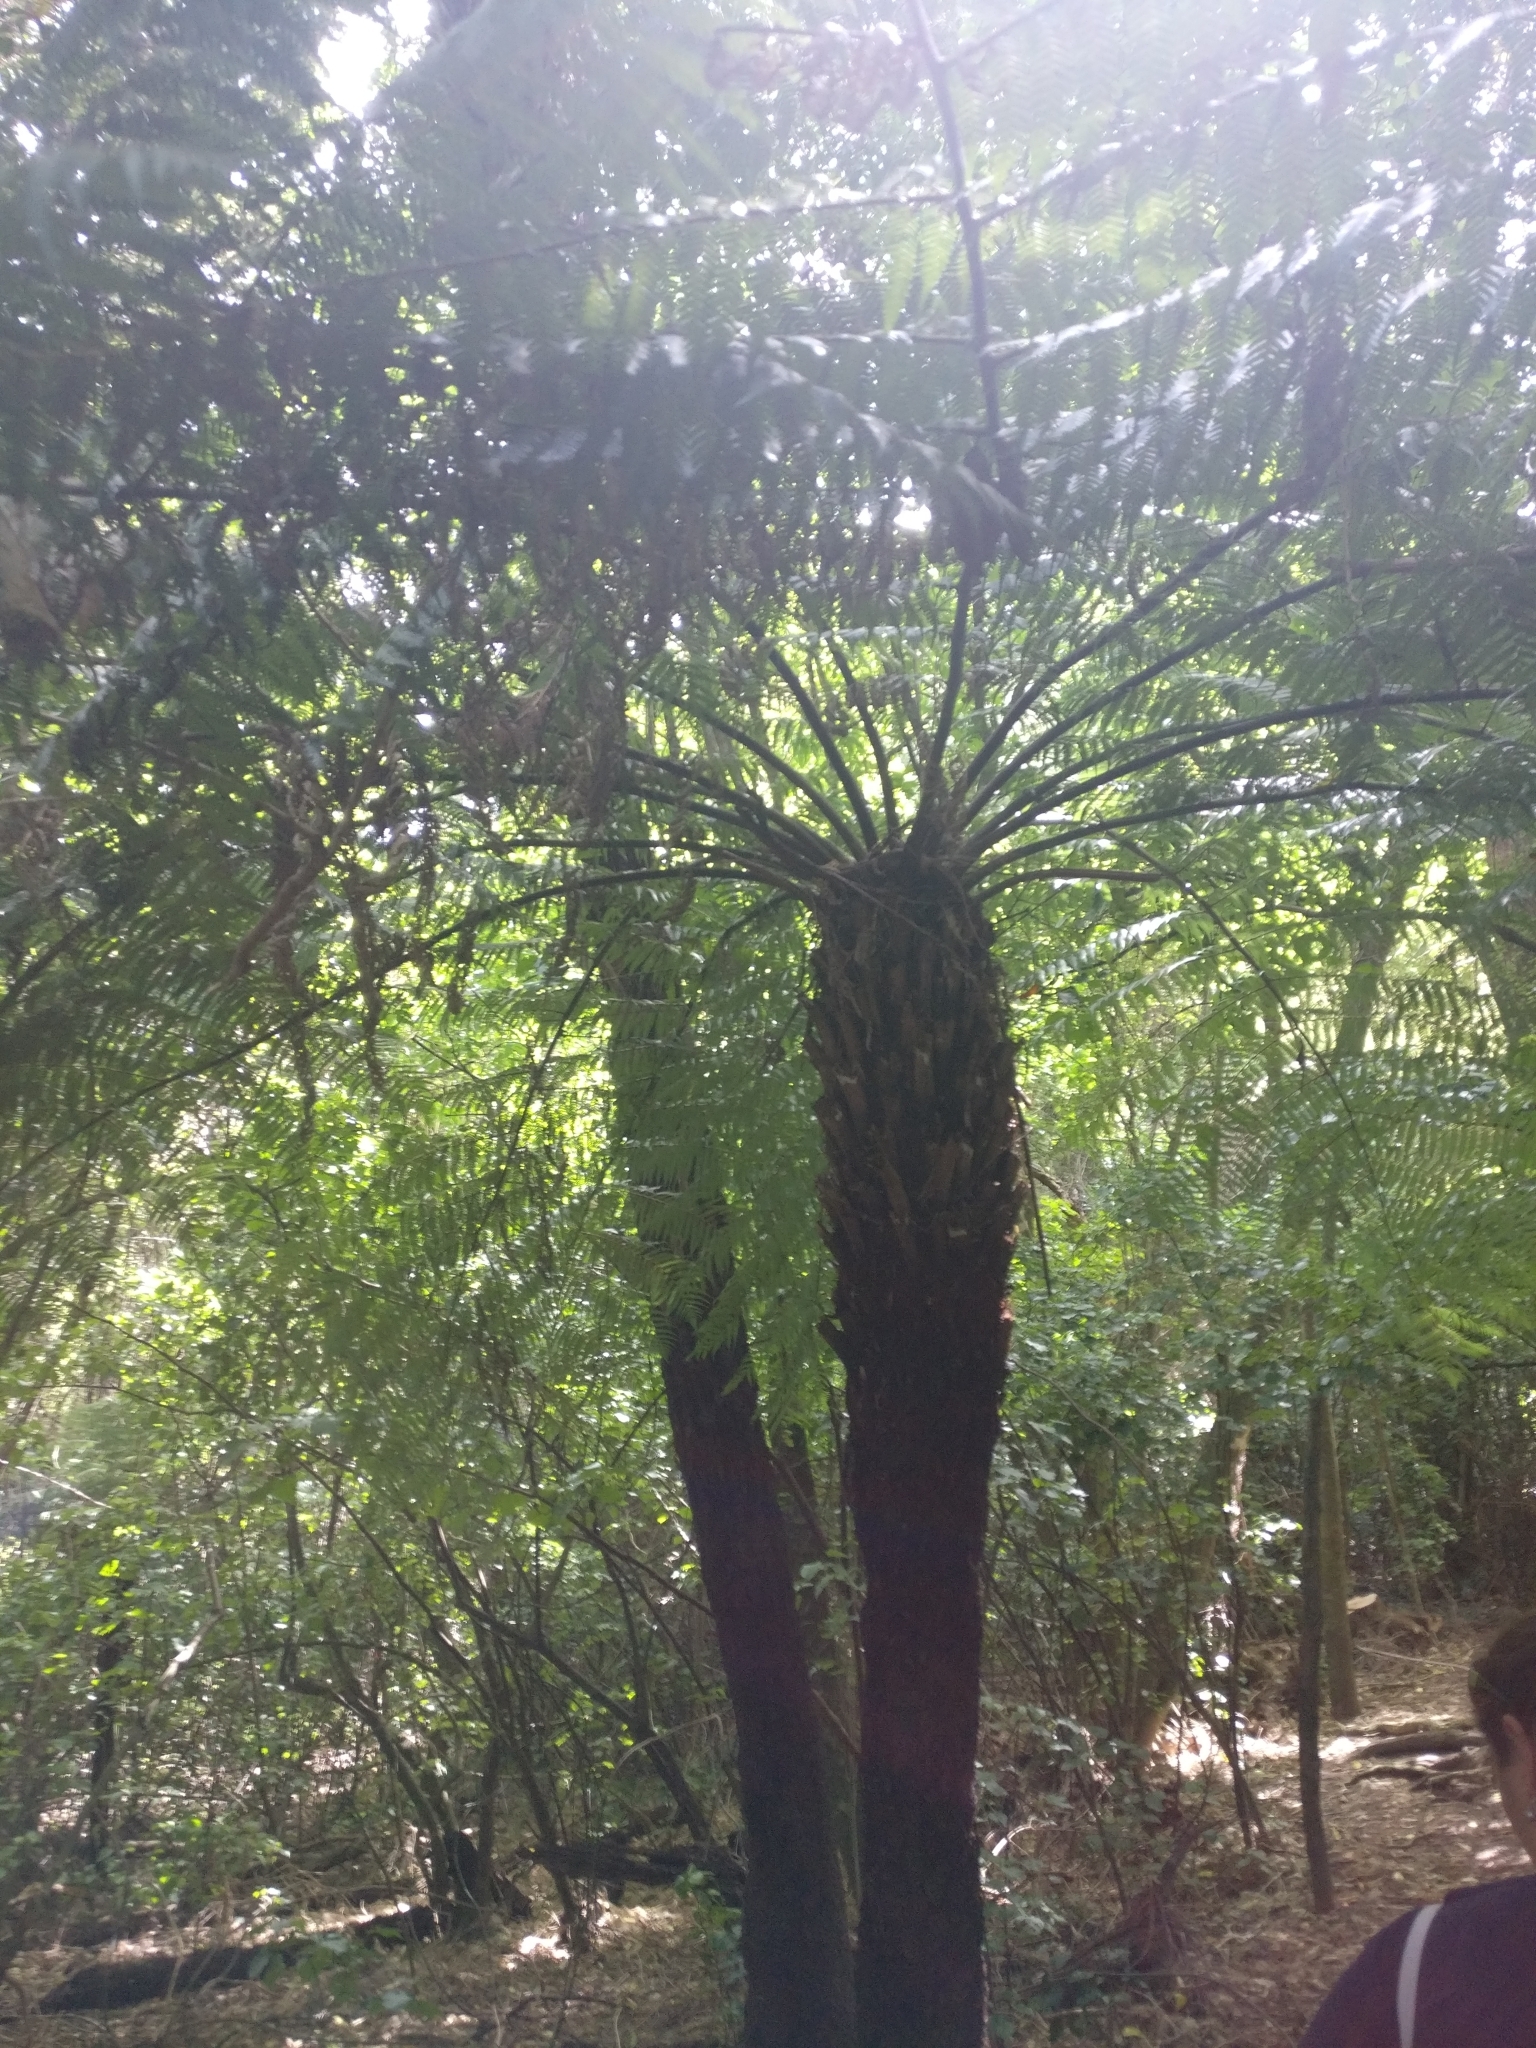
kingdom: Plantae
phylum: Tracheophyta
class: Polypodiopsida
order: Cyatheales
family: Cyatheaceae
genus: Alsophila
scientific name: Alsophila dealbata
